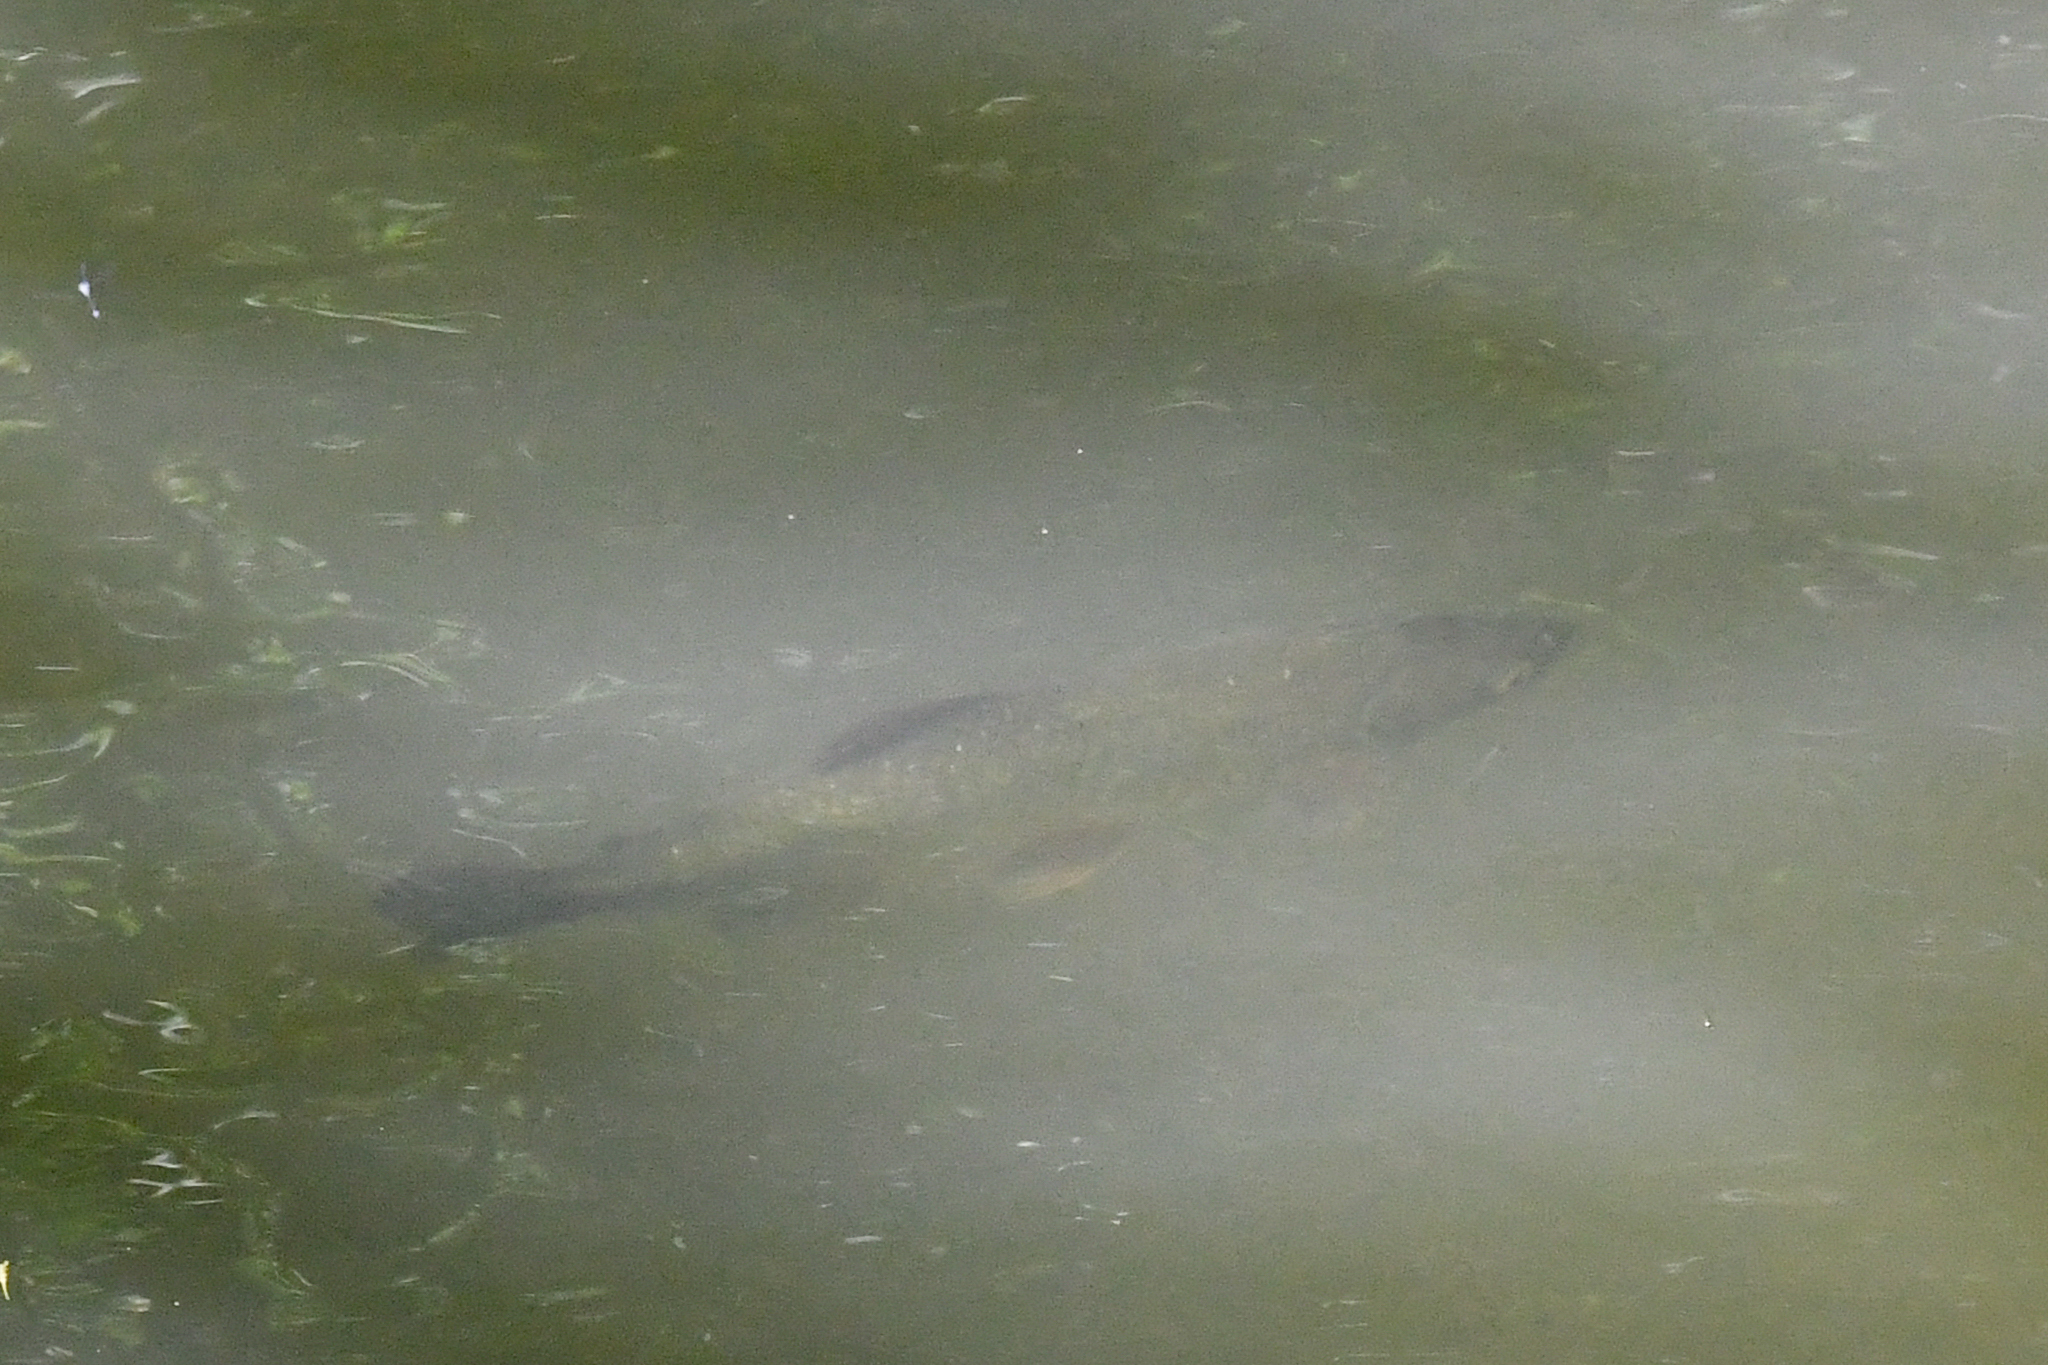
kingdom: Animalia
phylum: Chordata
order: Characiformes
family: Bryconidae
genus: Brycon
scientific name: Brycon costaricensis
